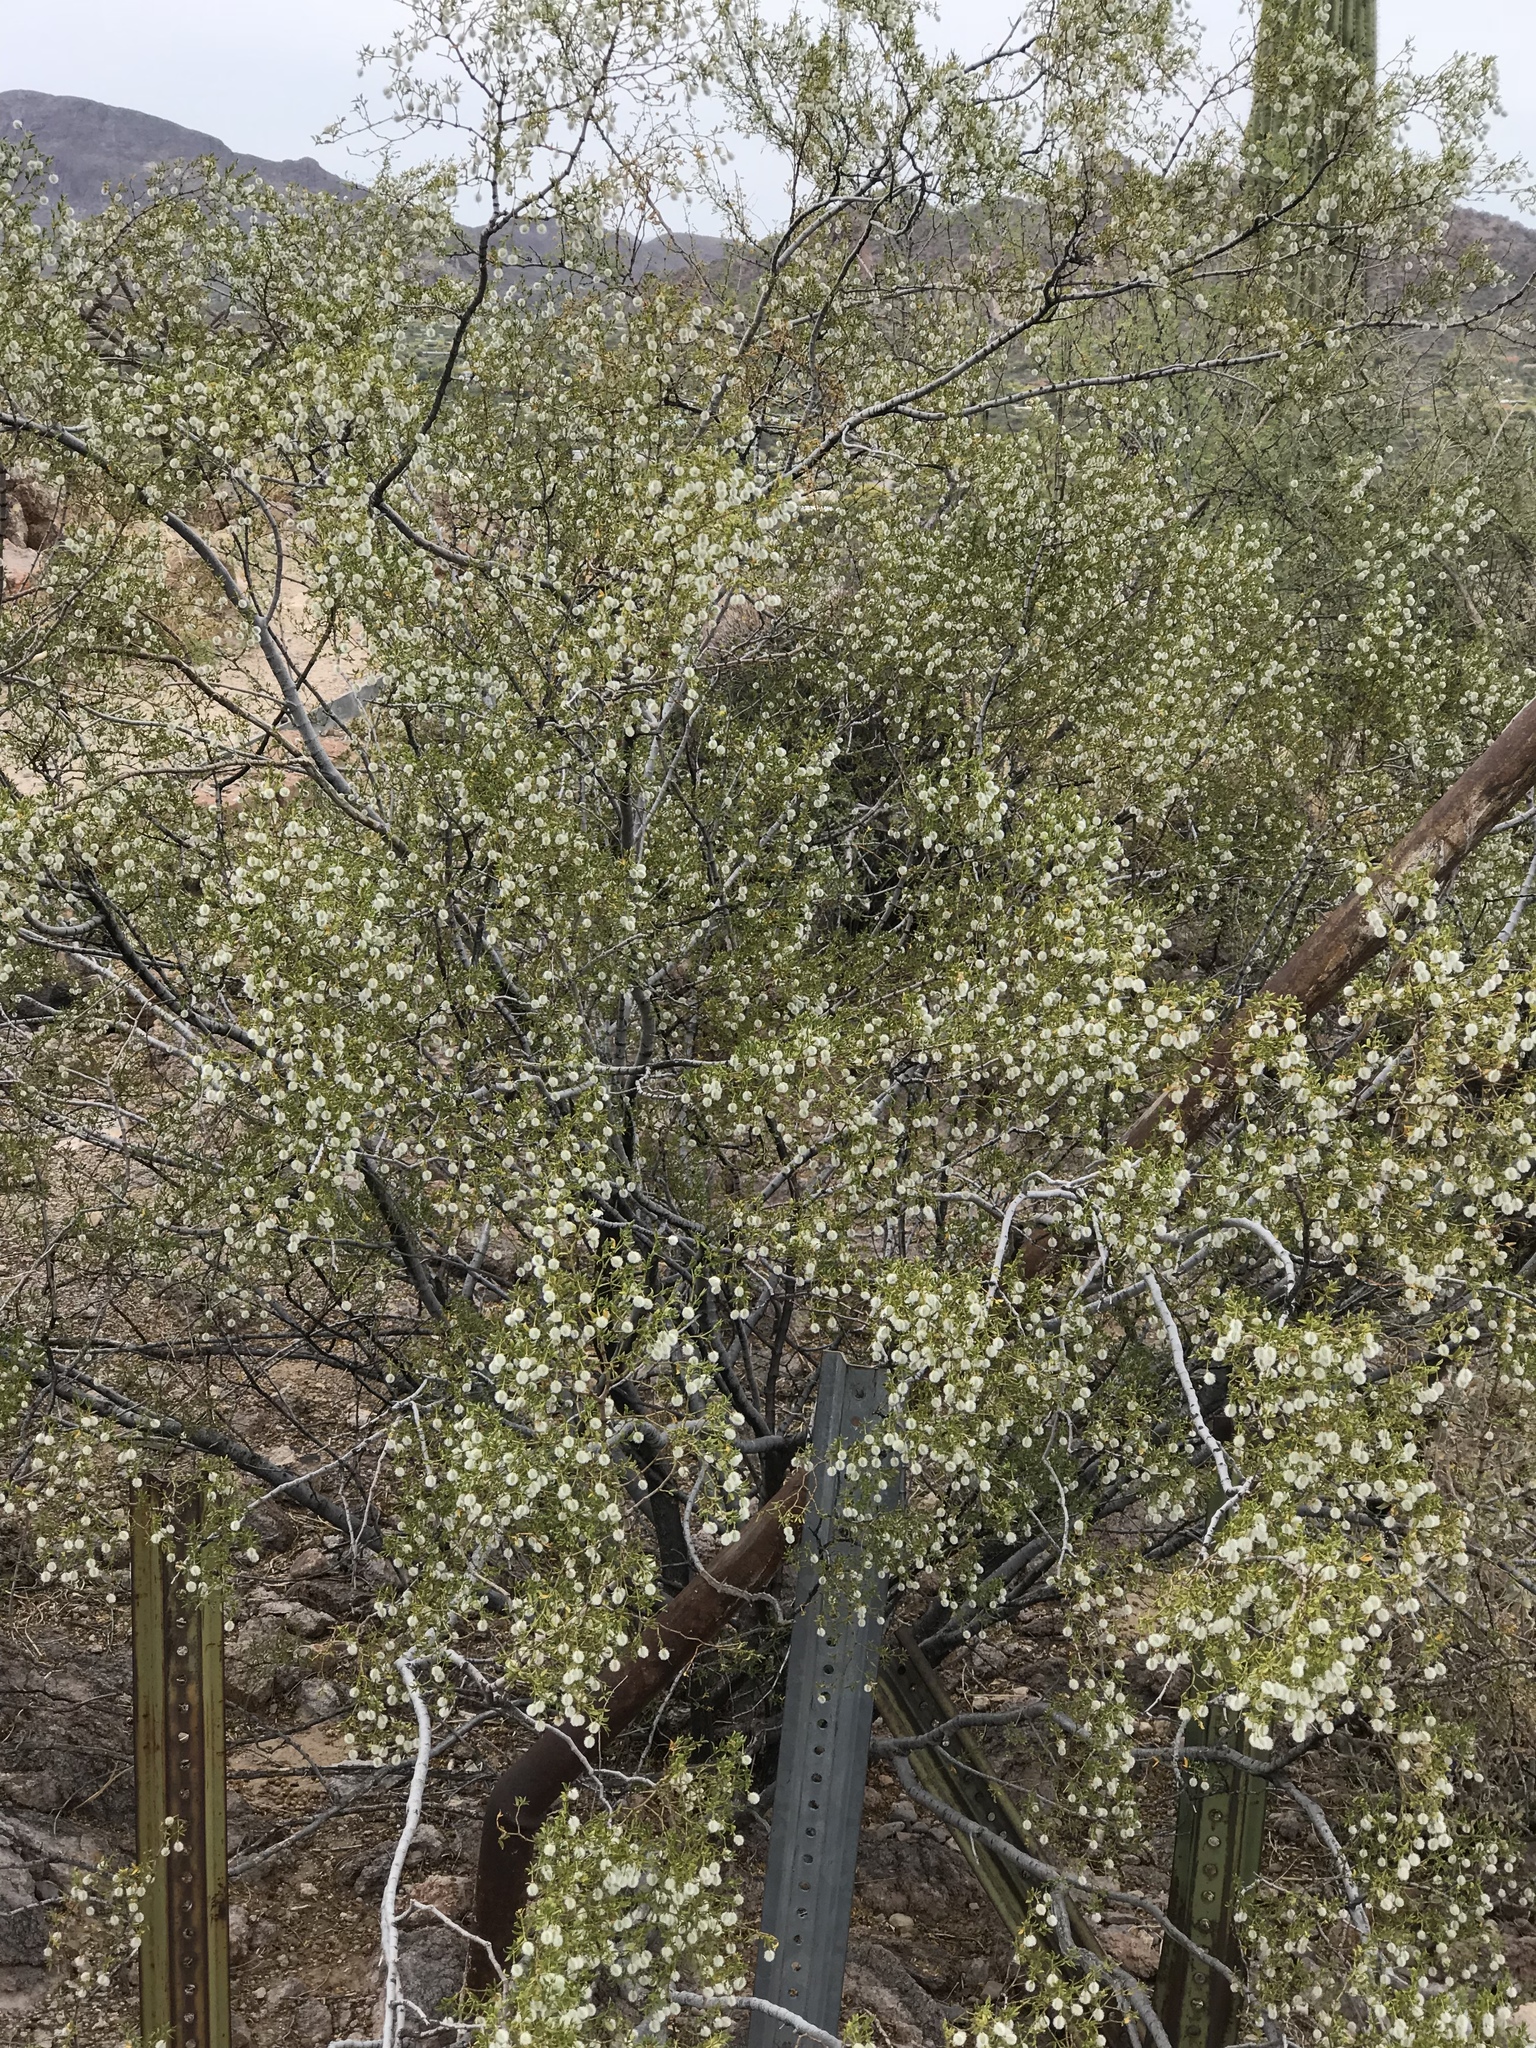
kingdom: Plantae
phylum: Tracheophyta
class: Magnoliopsida
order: Zygophyllales
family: Zygophyllaceae
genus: Larrea
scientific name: Larrea tridentata
